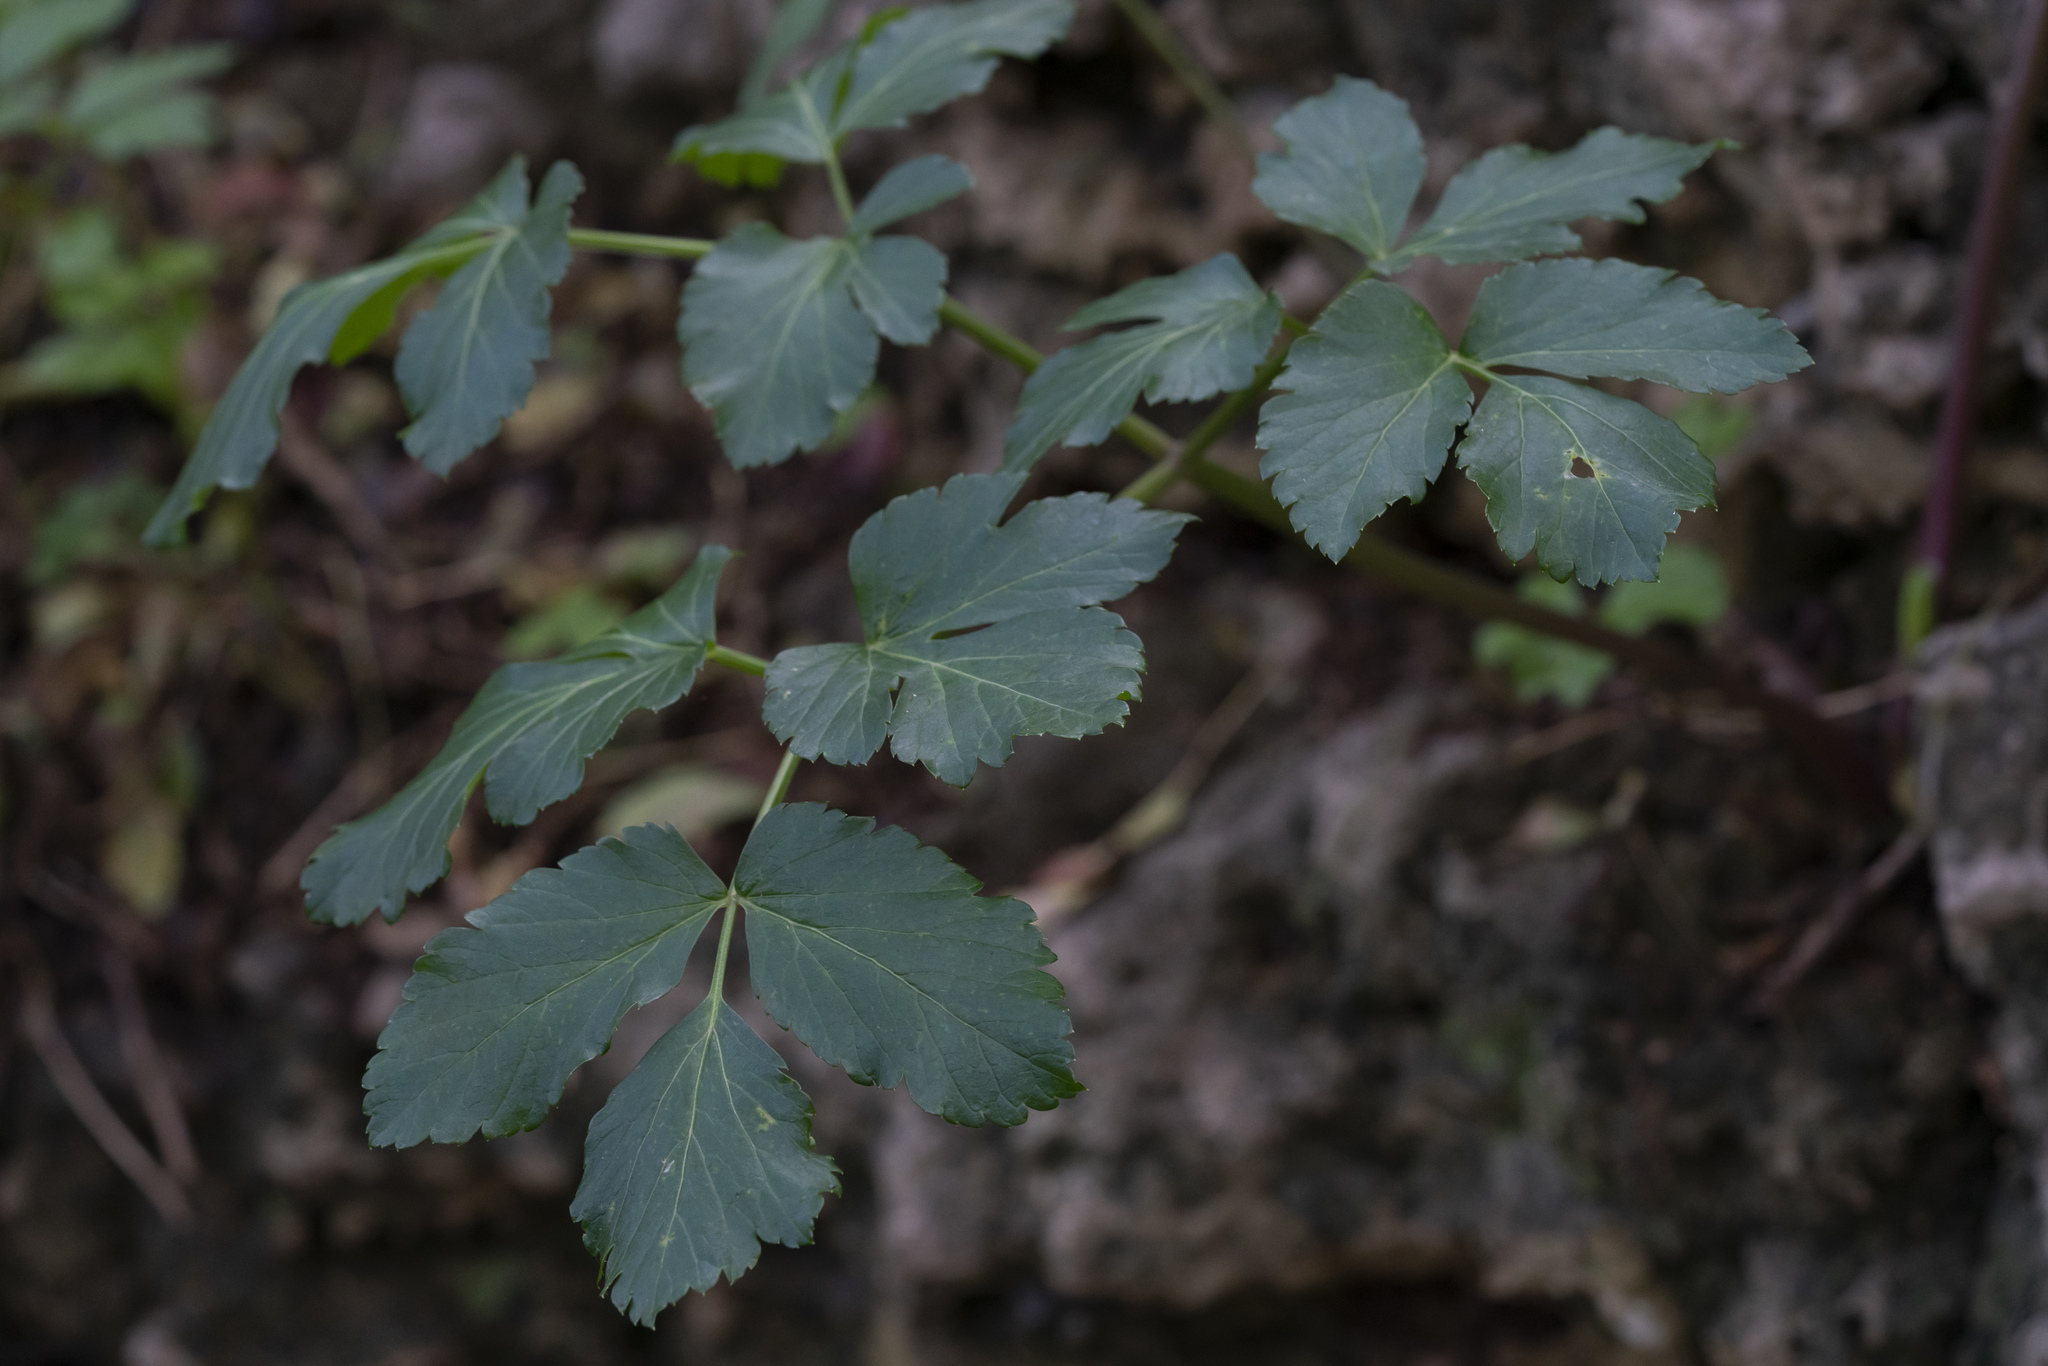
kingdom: Plantae
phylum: Tracheophyta
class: Magnoliopsida
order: Apiales
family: Apiaceae
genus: Smyrnium
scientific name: Smyrnium olusatrum
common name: Alexanders
